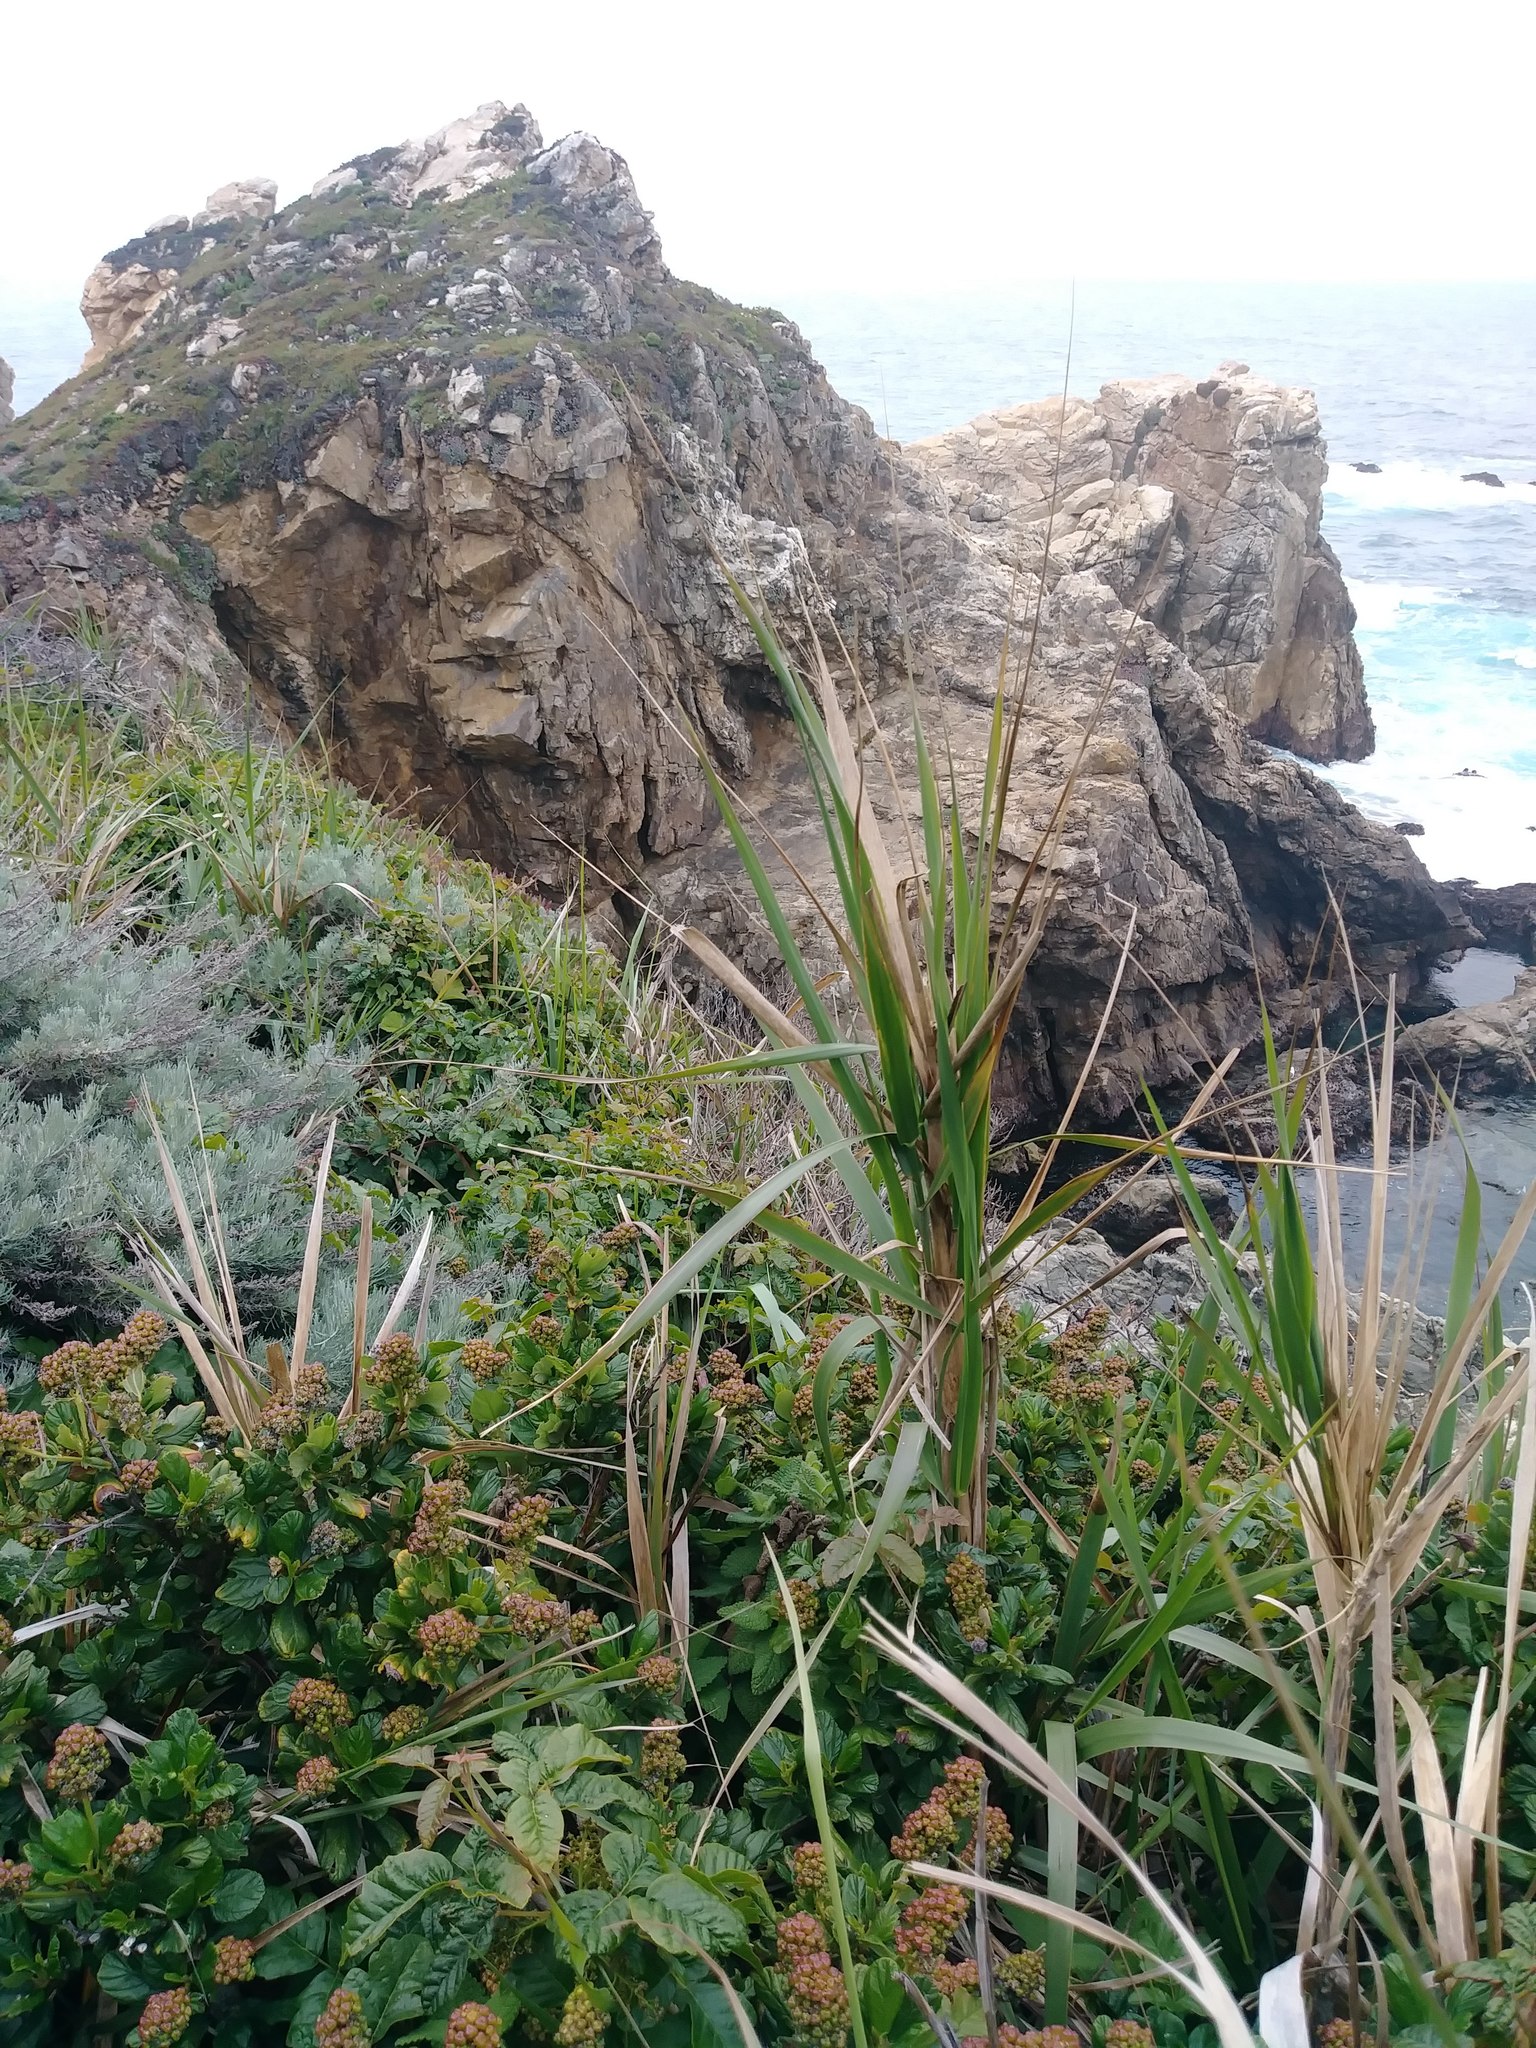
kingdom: Plantae
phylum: Tracheophyta
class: Liliopsida
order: Poales
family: Poaceae
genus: Leymus
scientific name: Leymus condensatus
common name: Giant wild rye
